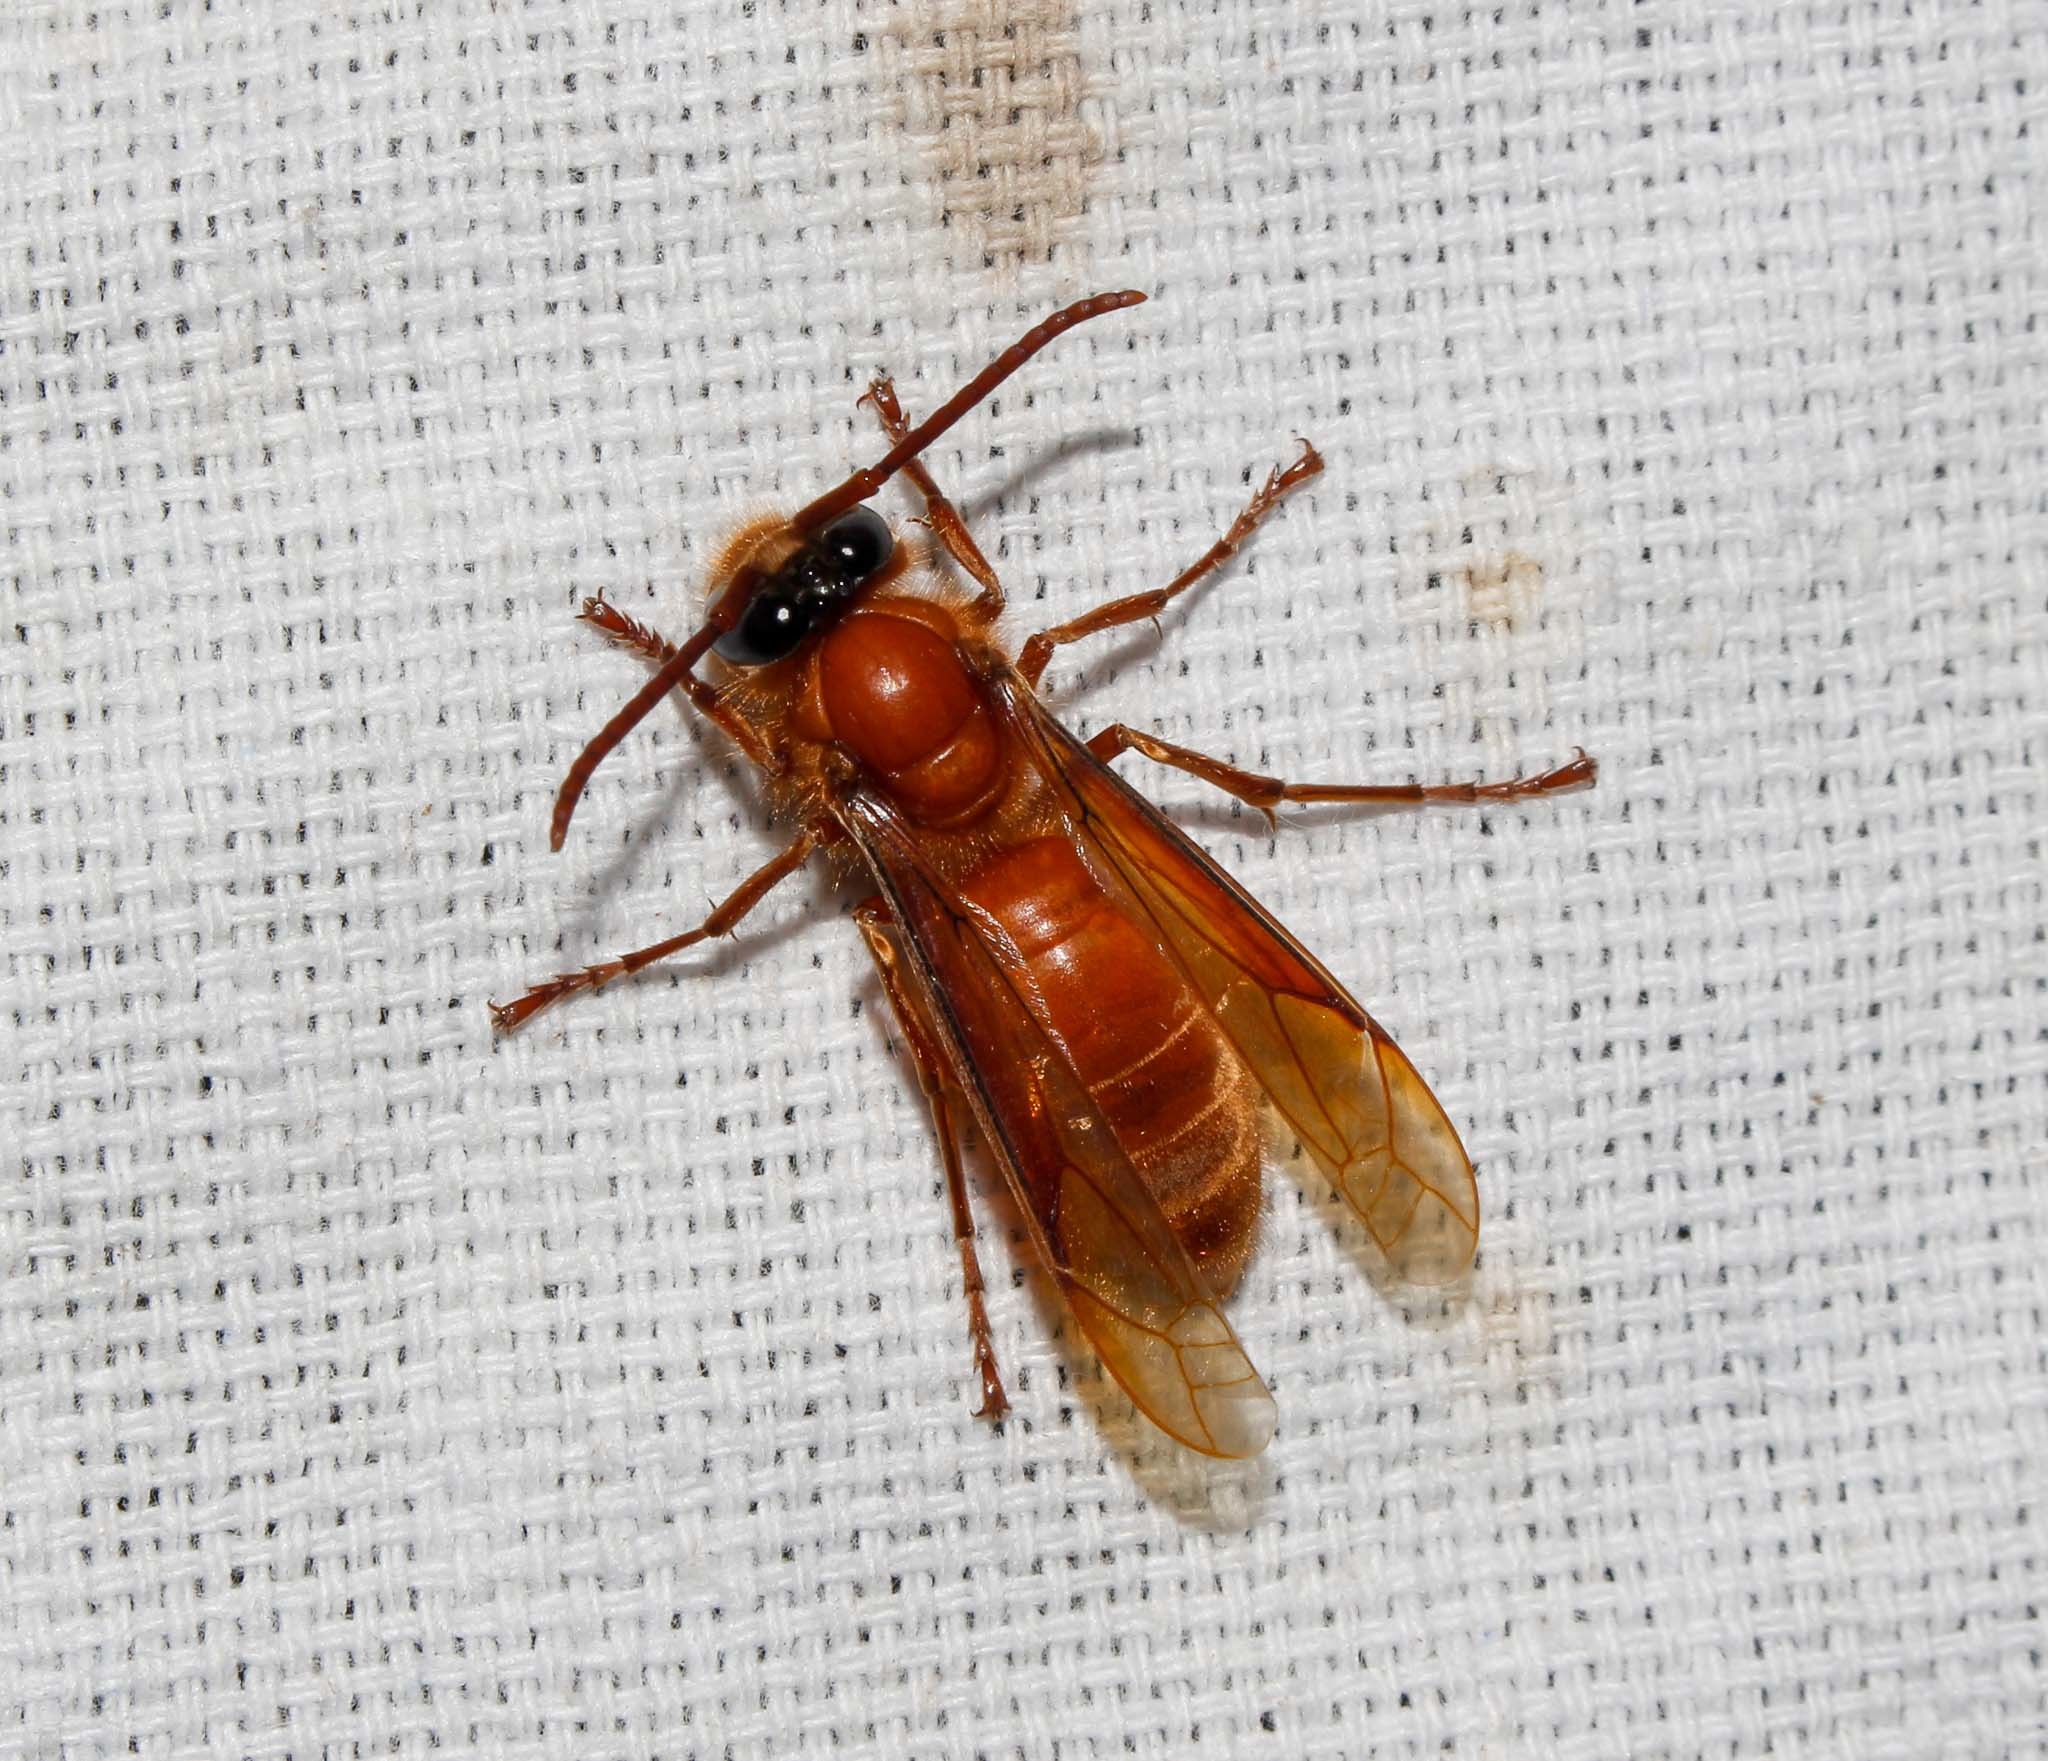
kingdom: Animalia
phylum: Arthropoda
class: Insecta
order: Hymenoptera
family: Vespidae
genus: Provespa
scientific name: Provespa barthelemyi
